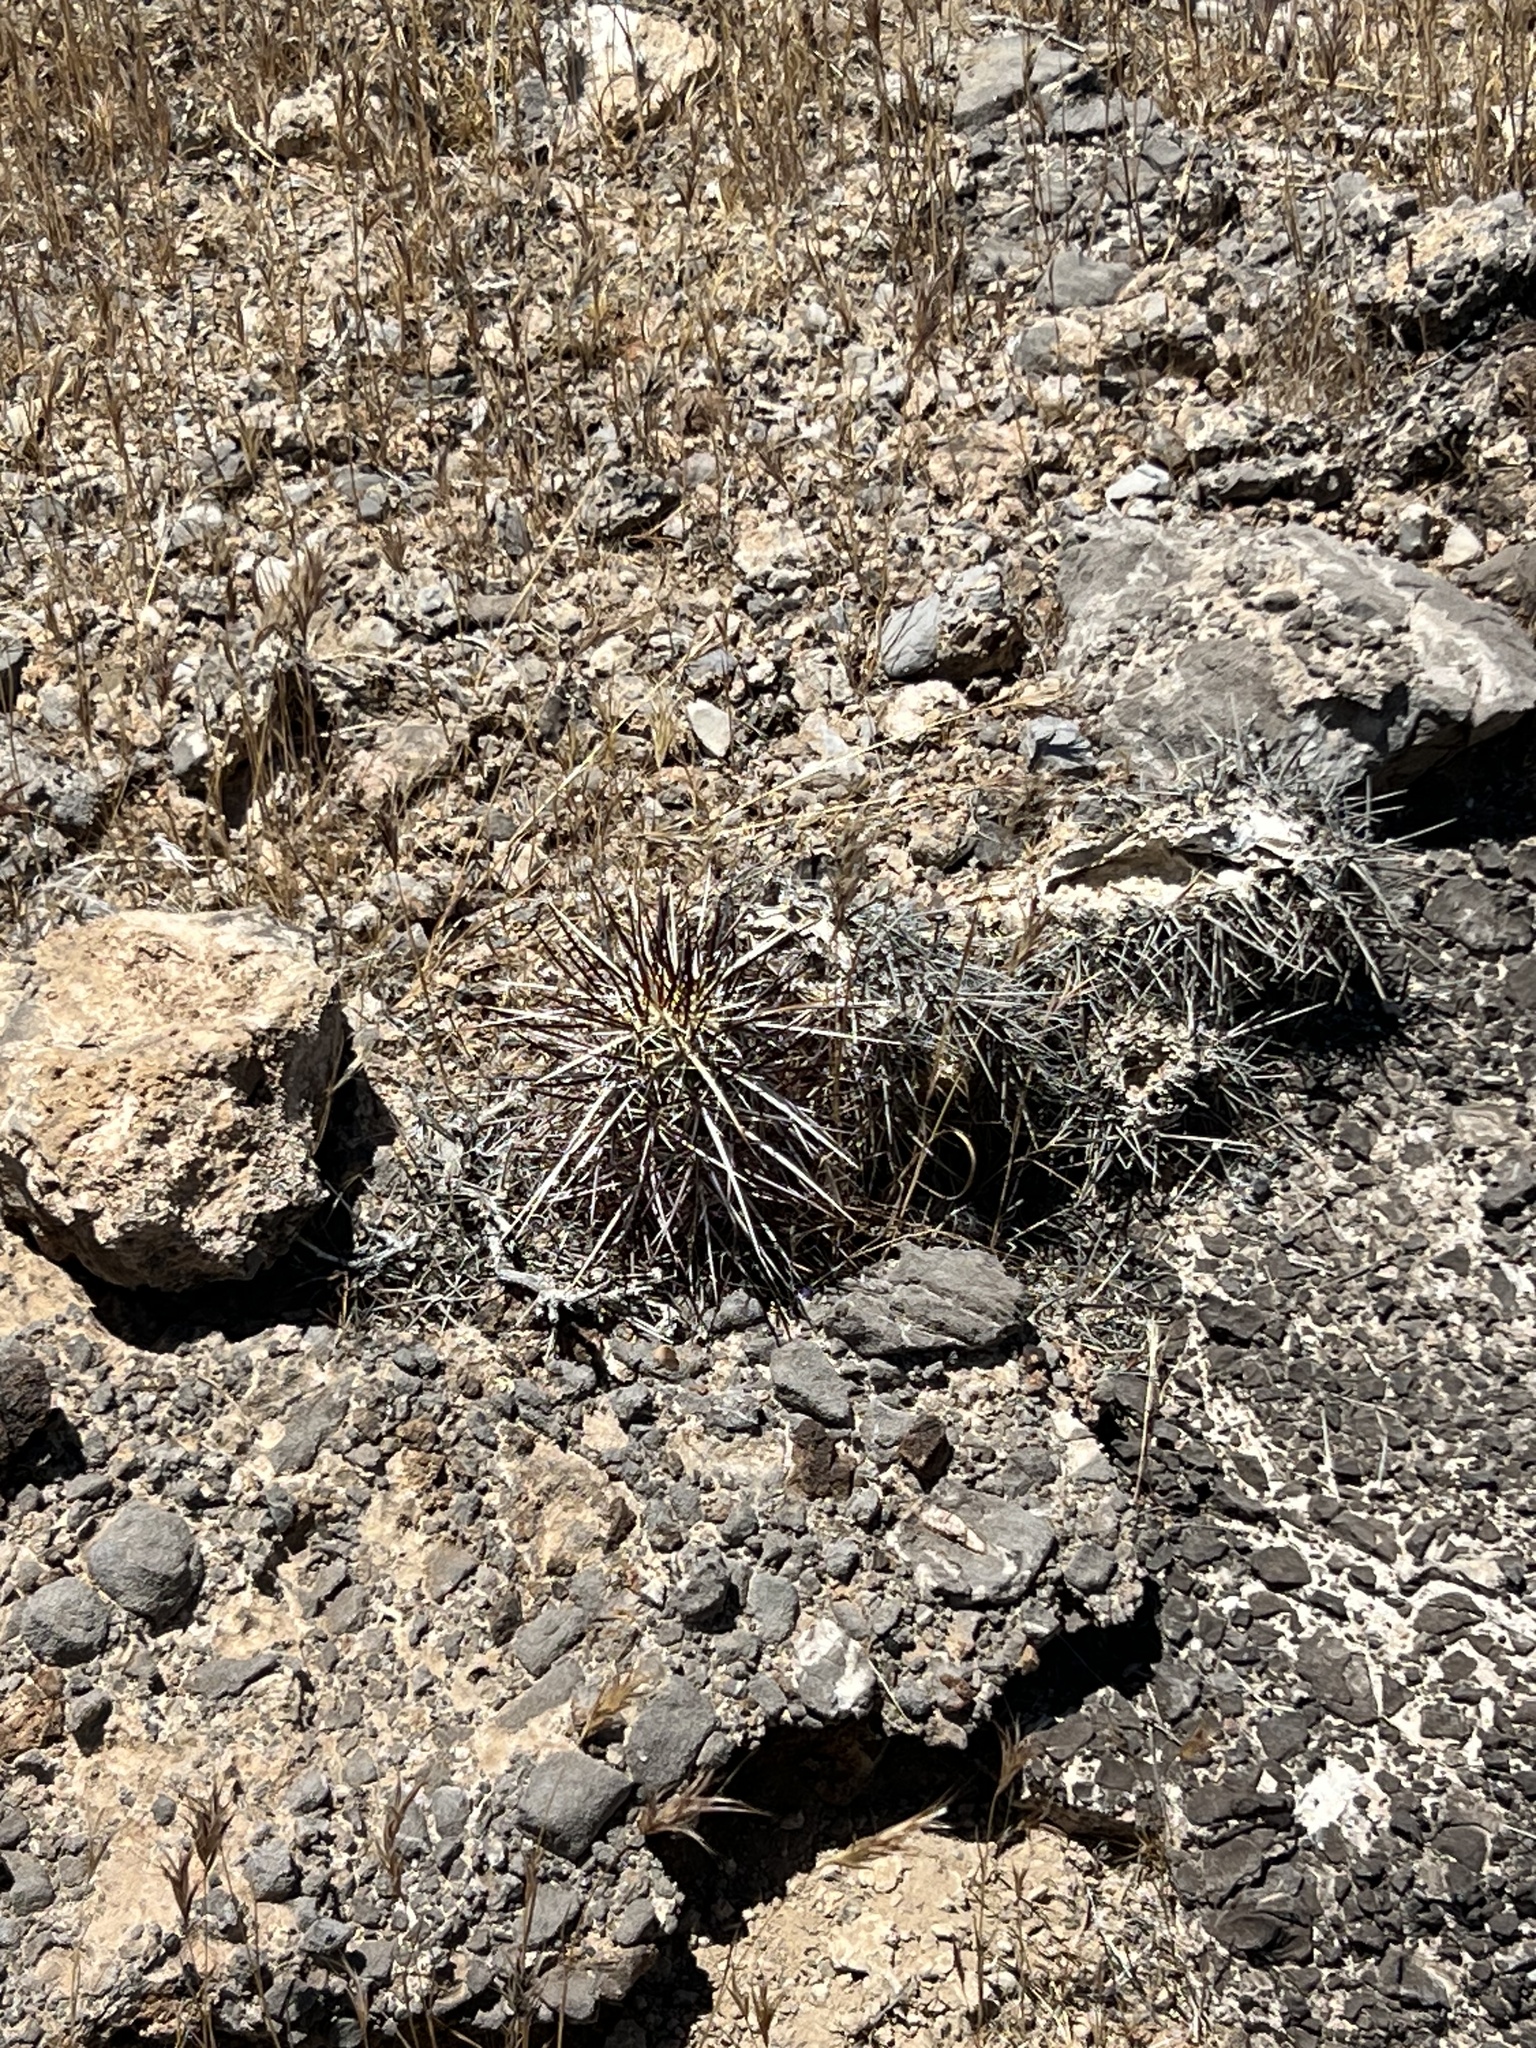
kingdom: Plantae
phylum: Tracheophyta
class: Magnoliopsida
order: Caryophyllales
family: Cactaceae
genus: Echinocereus
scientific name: Echinocereus engelmannii
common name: Engelmann's hedgehog cactus
